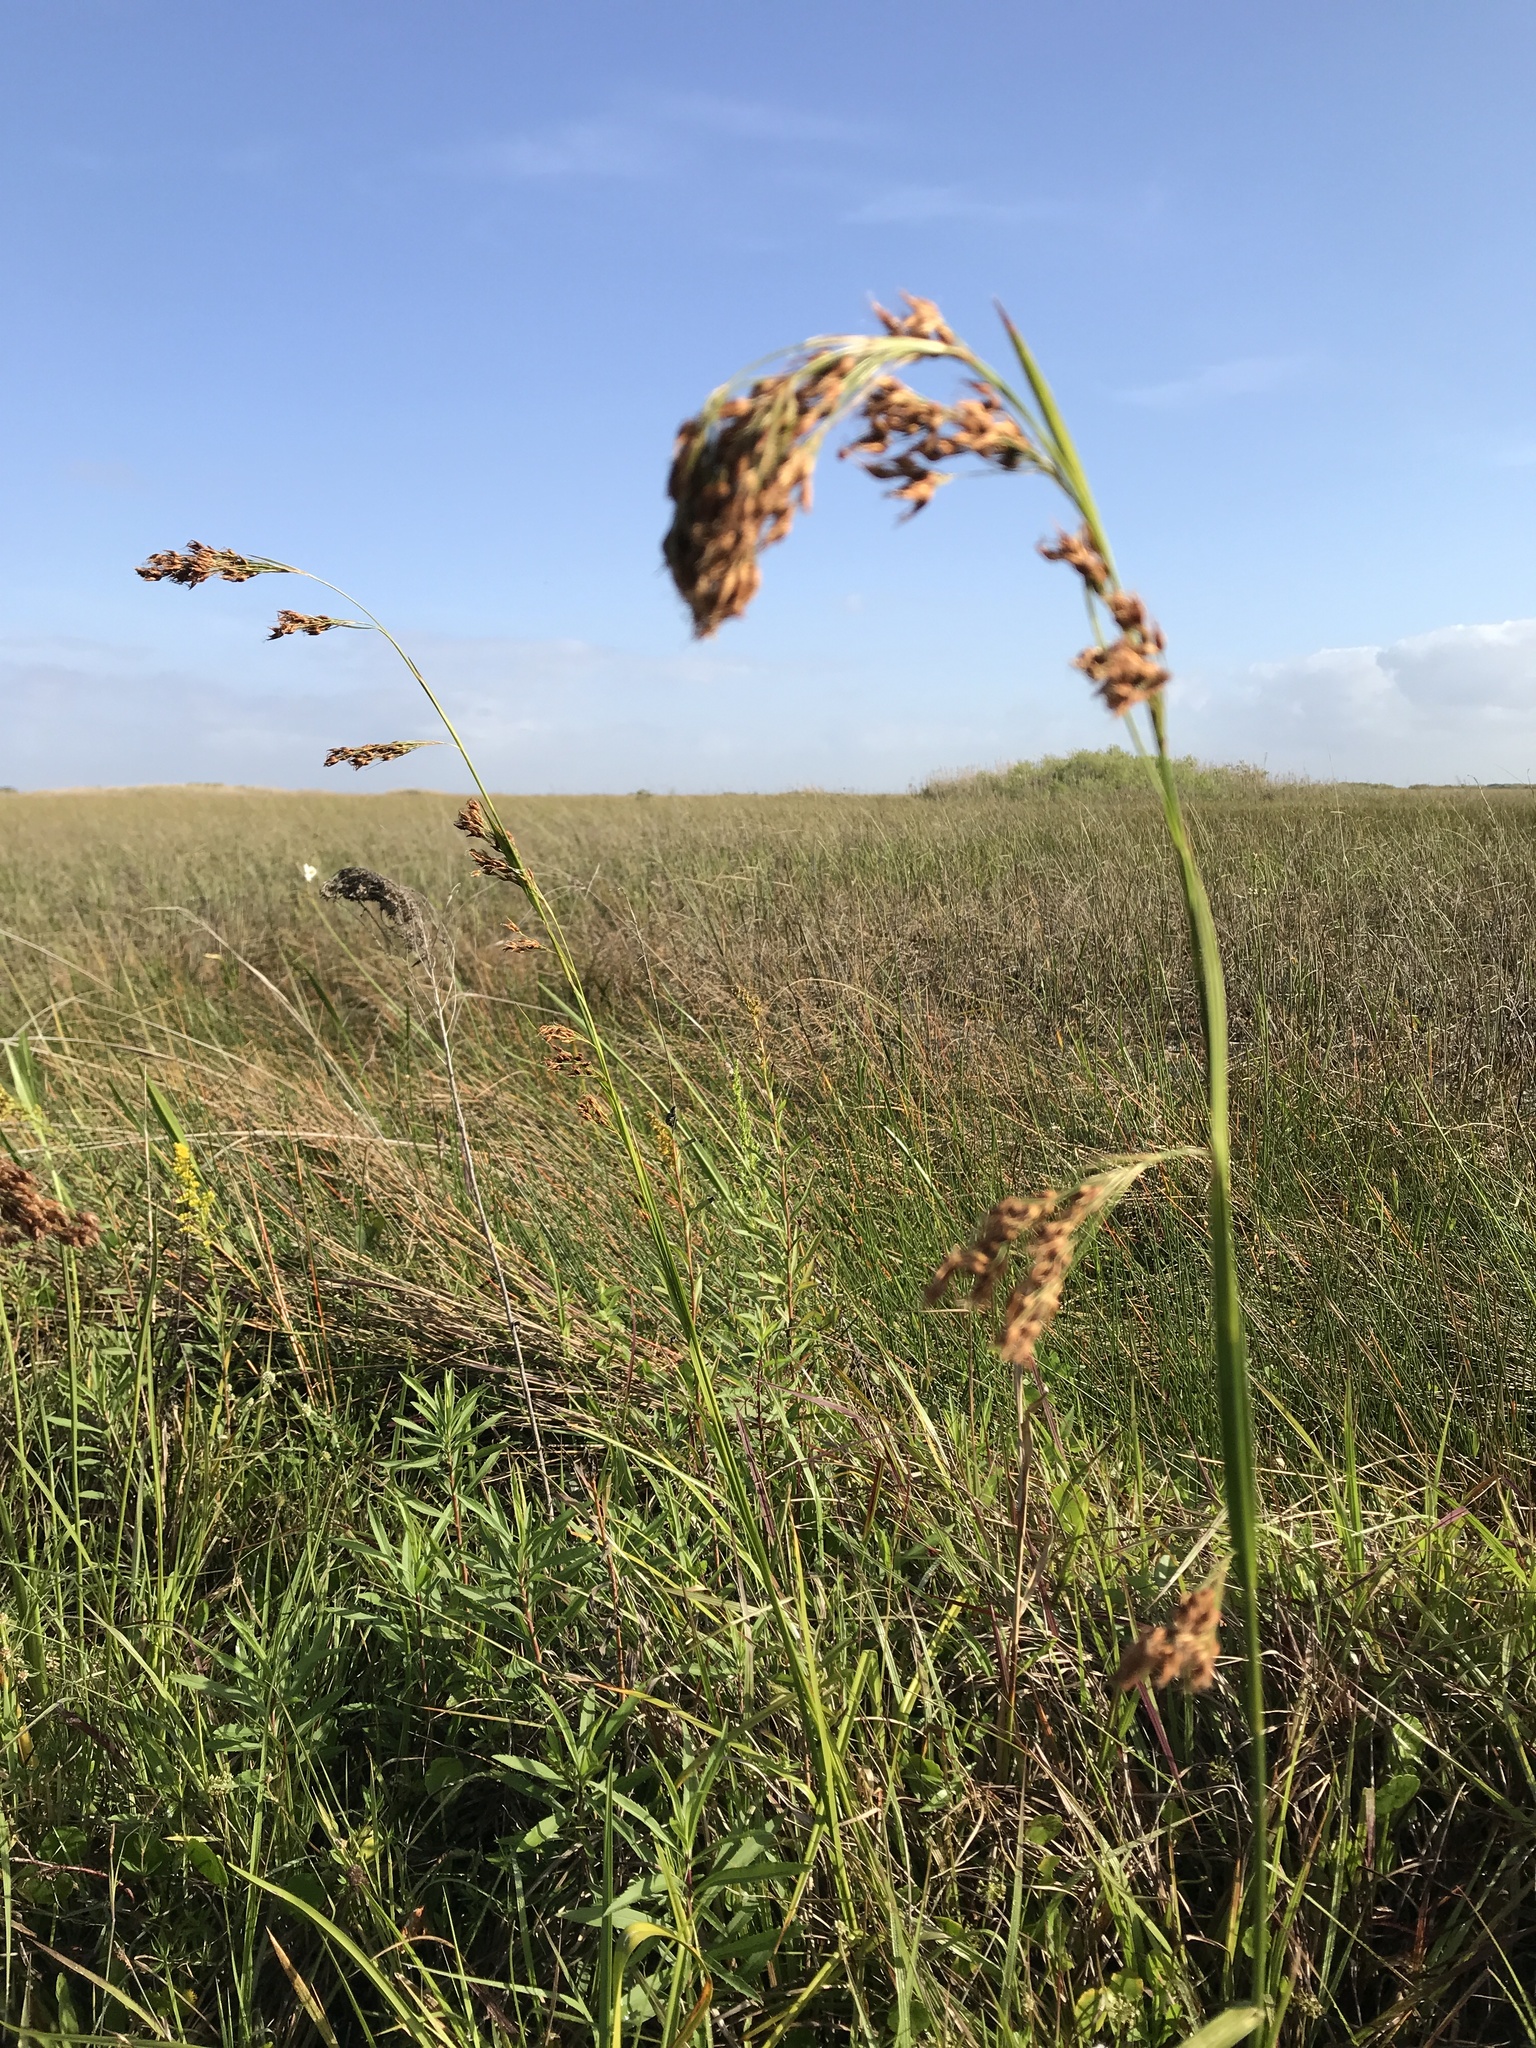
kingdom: Plantae
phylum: Tracheophyta
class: Liliopsida
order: Poales
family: Cyperaceae
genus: Rhynchospora
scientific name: Rhynchospora odorata
